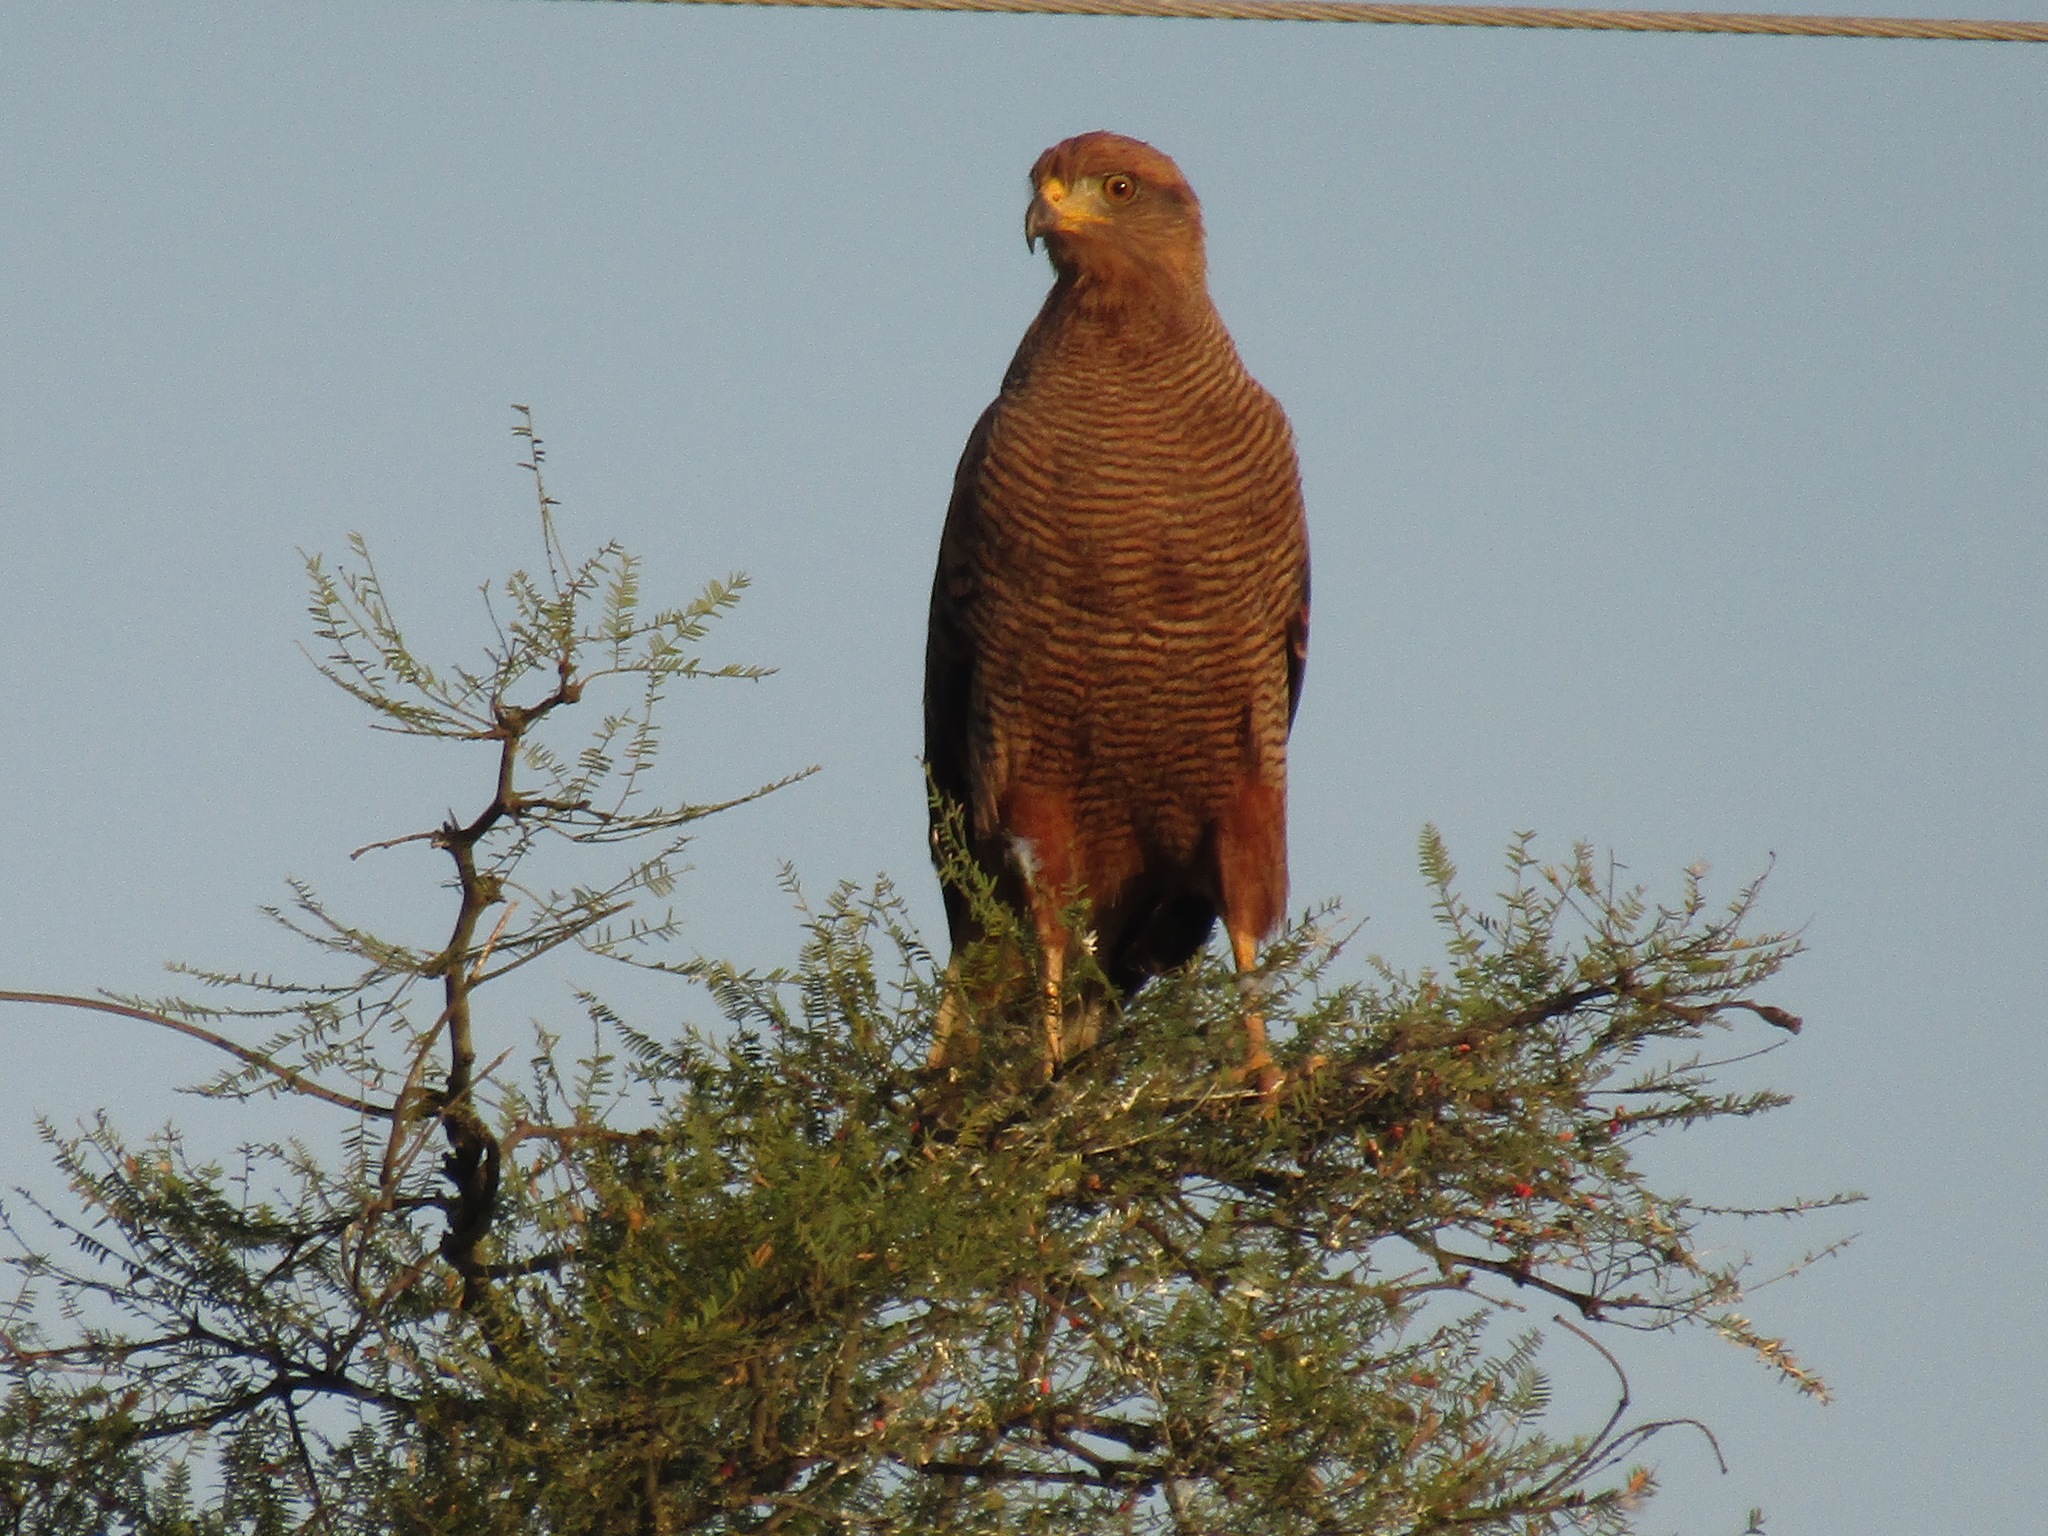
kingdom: Animalia
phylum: Chordata
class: Aves
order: Accipitriformes
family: Accipitridae
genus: Buteogallus
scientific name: Buteogallus meridionalis
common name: Savanna hawk
